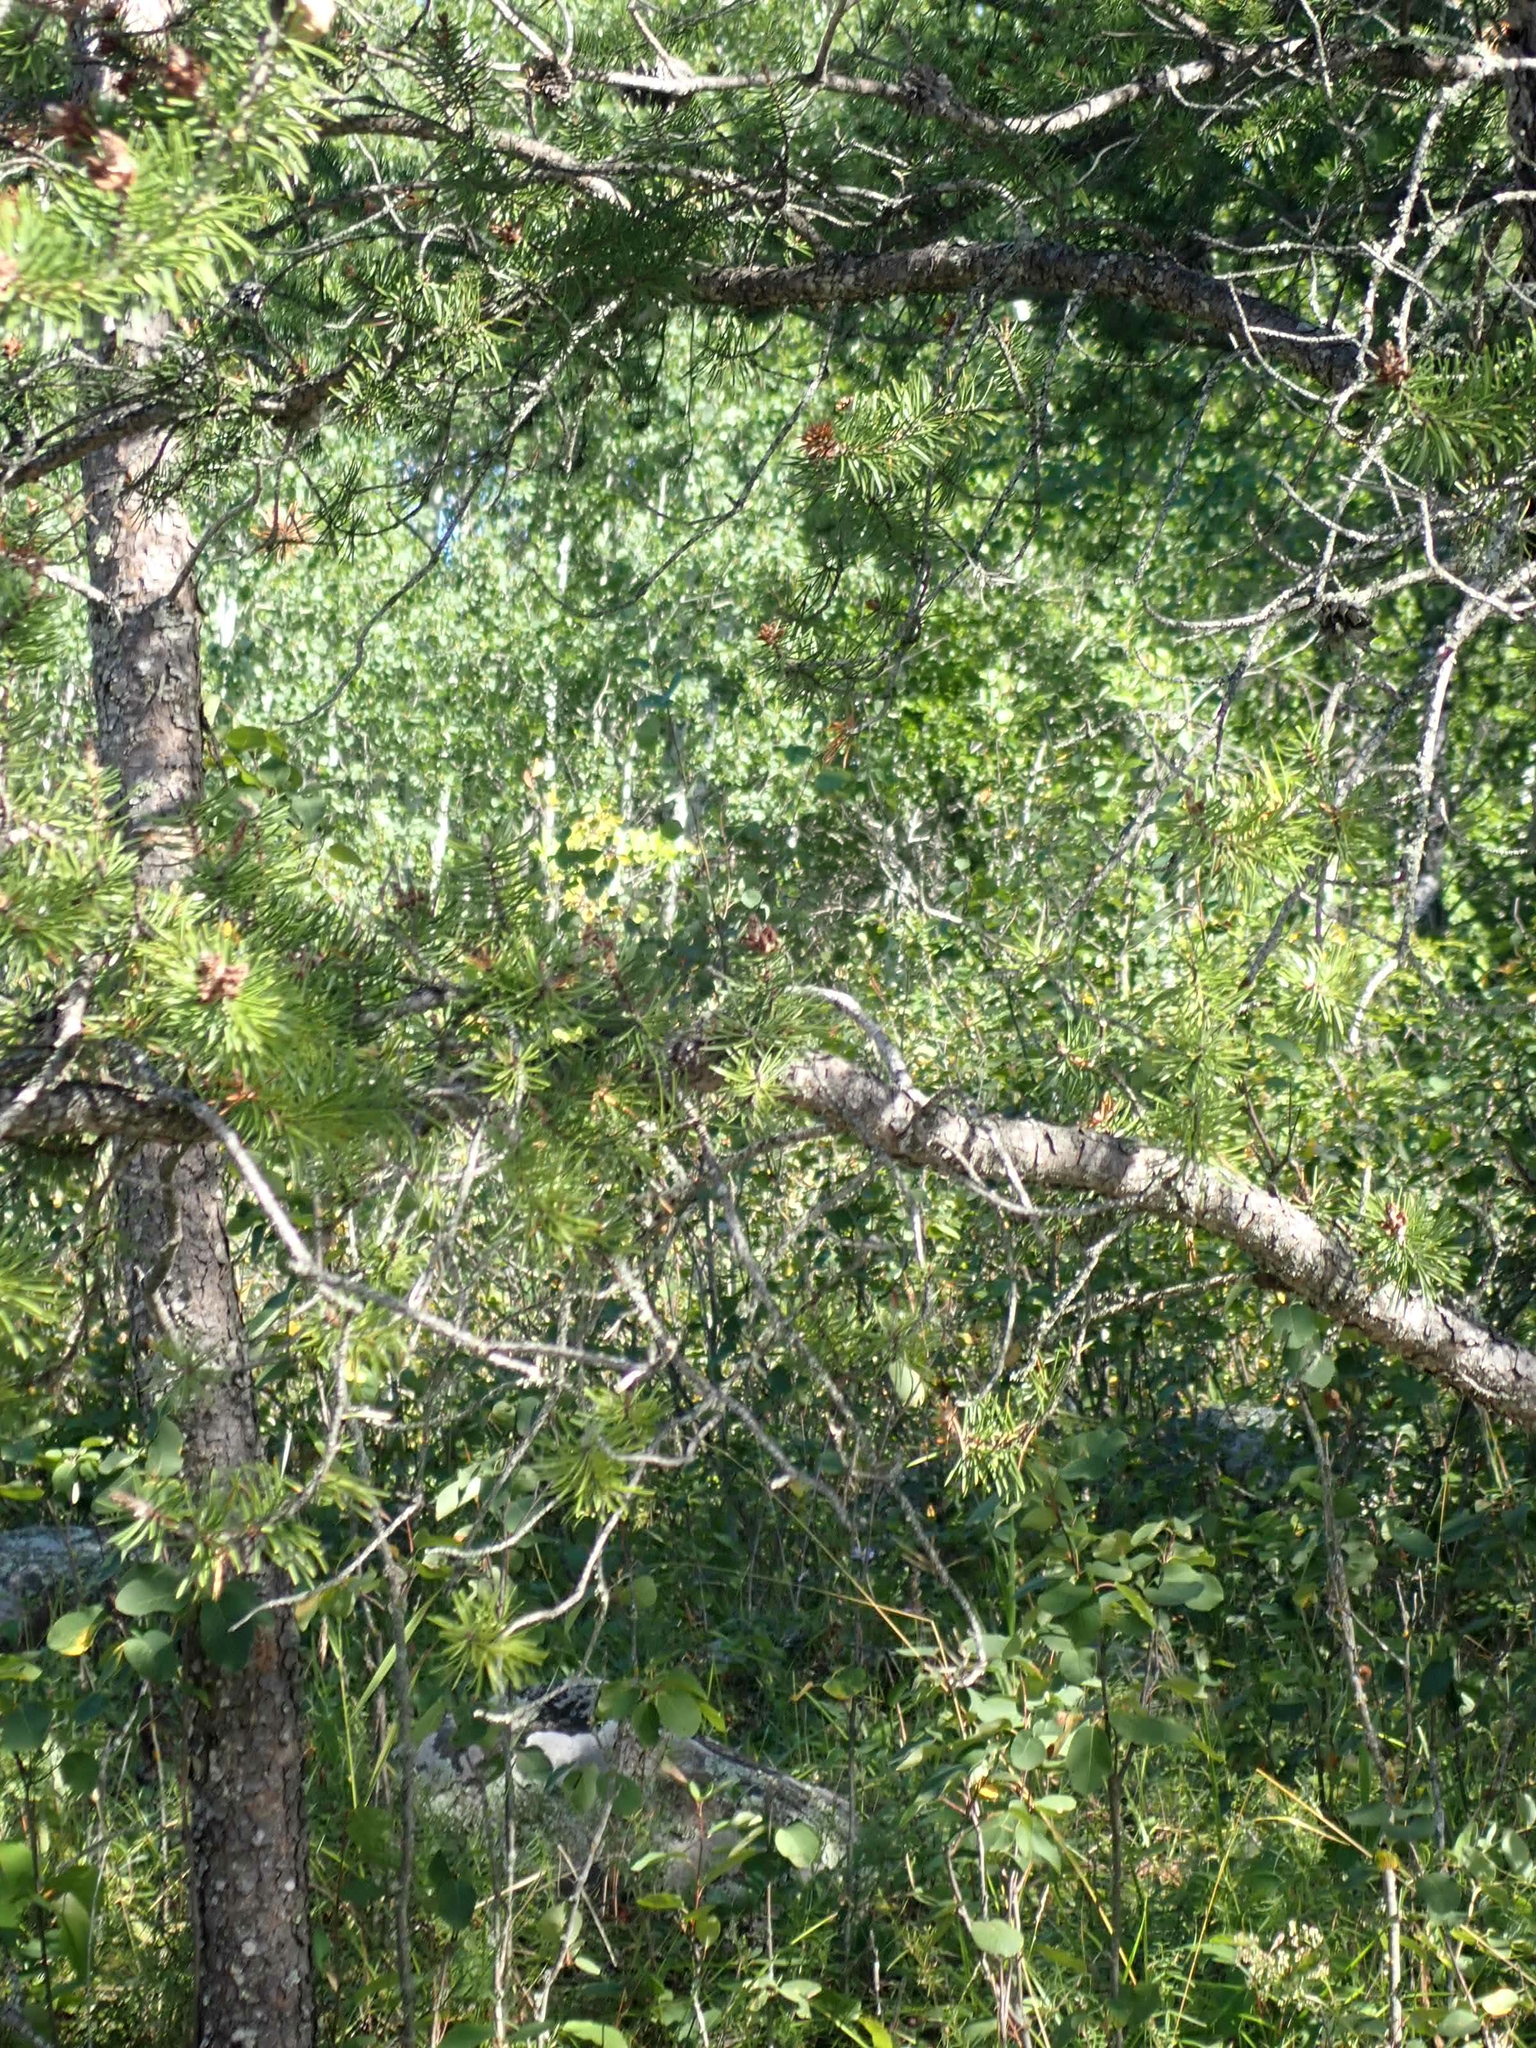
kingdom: Plantae
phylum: Tracheophyta
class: Pinopsida
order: Pinales
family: Pinaceae
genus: Pinus
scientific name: Pinus banksiana
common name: Jack pine
